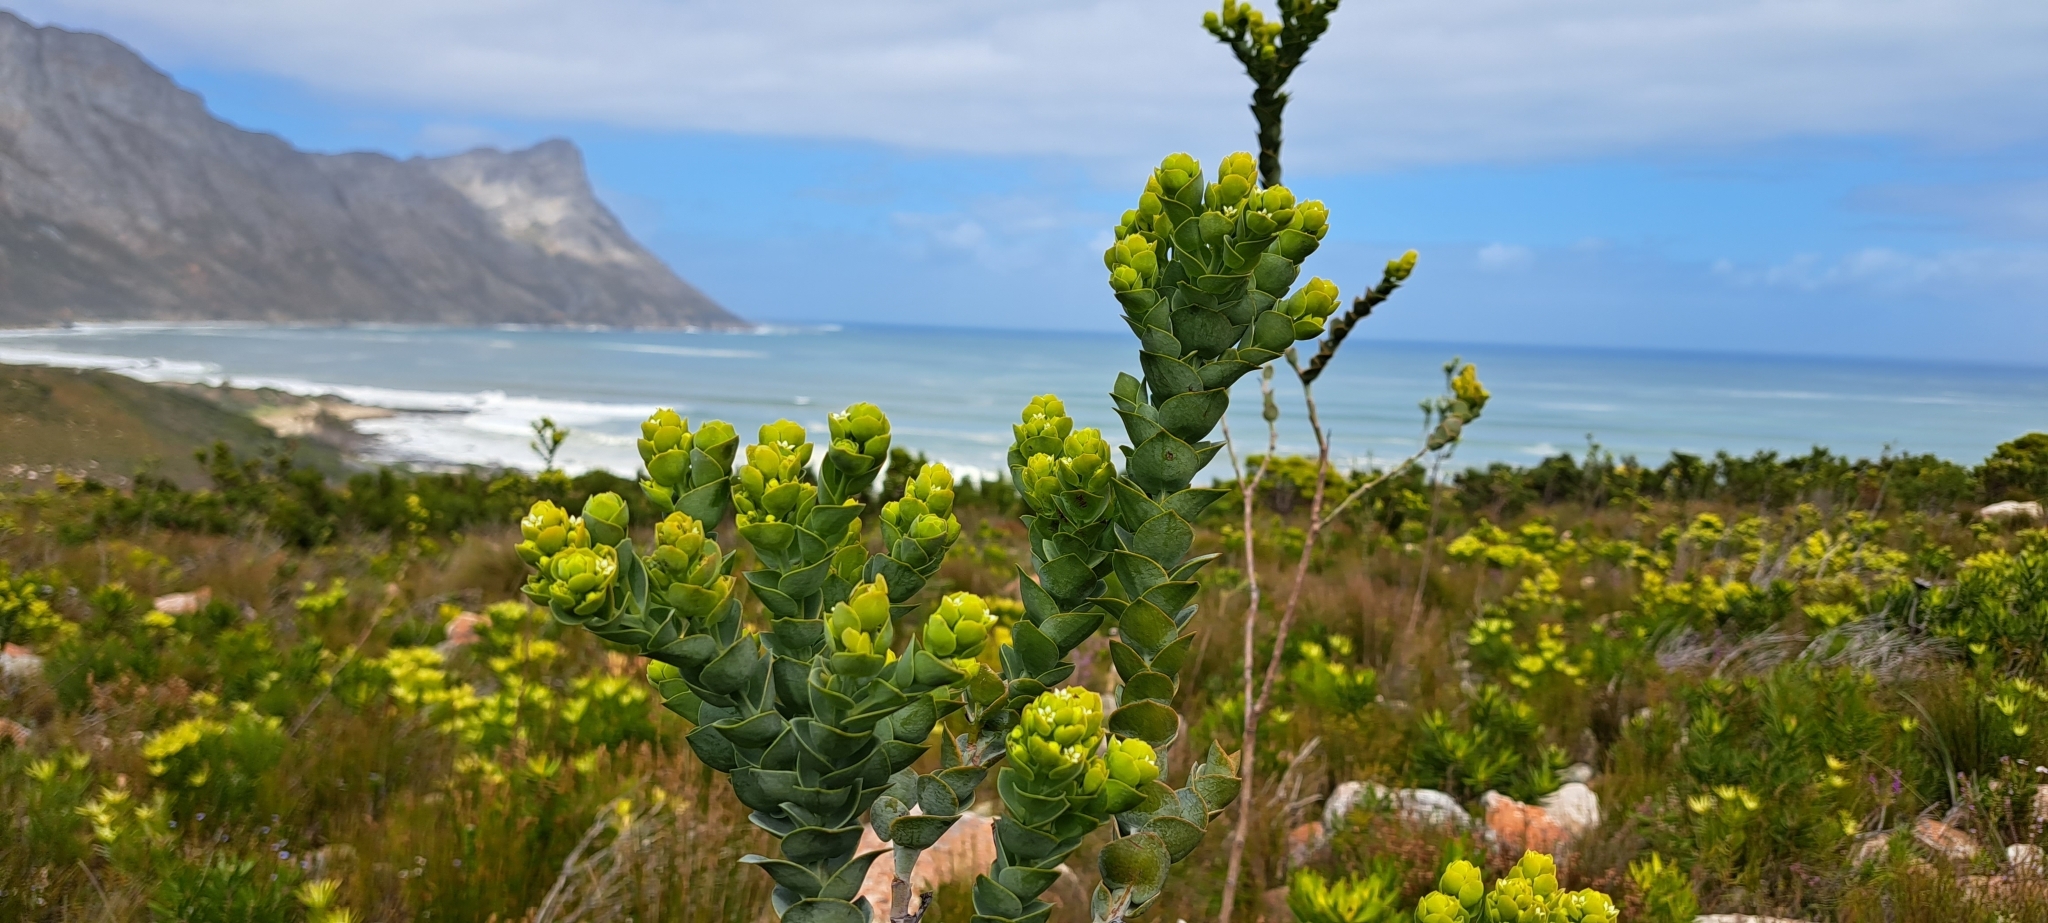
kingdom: Plantae
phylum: Tracheophyta
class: Magnoliopsida
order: Santalales
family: Thesiaceae
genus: Thesium
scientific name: Thesium euphorbioides
